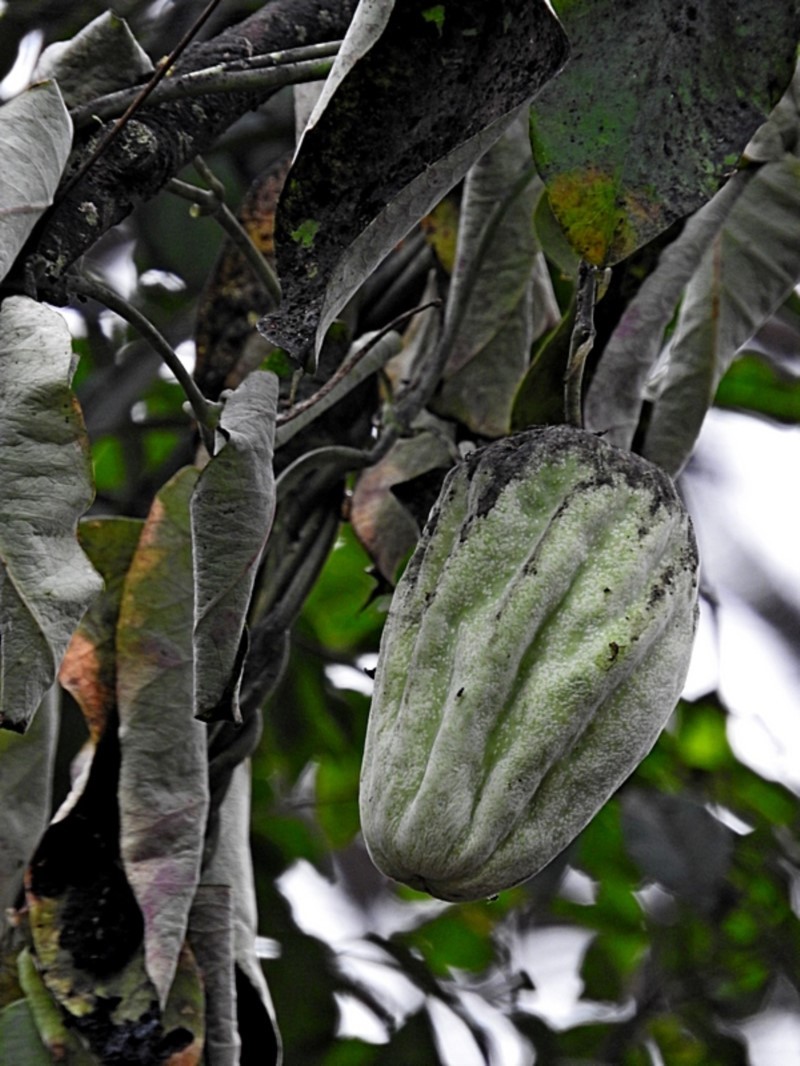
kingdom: Plantae
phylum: Tracheophyta
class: Magnoliopsida
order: Gentianales
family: Apocynaceae
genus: Araujia
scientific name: Araujia sericifera
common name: White bladderflower
